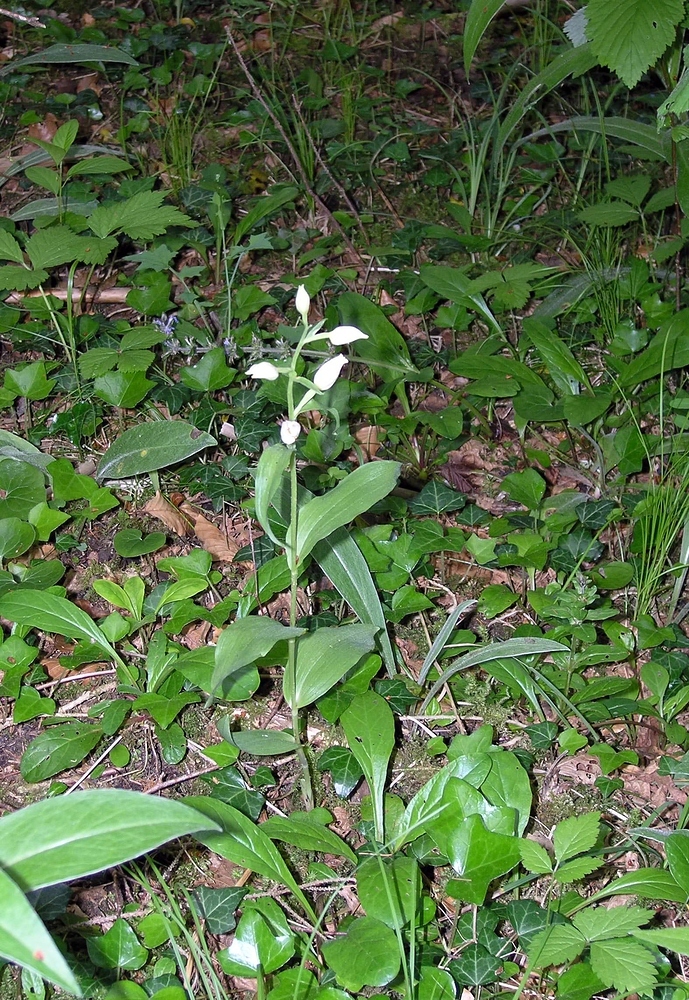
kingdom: Plantae
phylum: Tracheophyta
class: Liliopsida
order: Asparagales
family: Orchidaceae
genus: Cephalanthera
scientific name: Cephalanthera damasonium
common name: White helleborine
